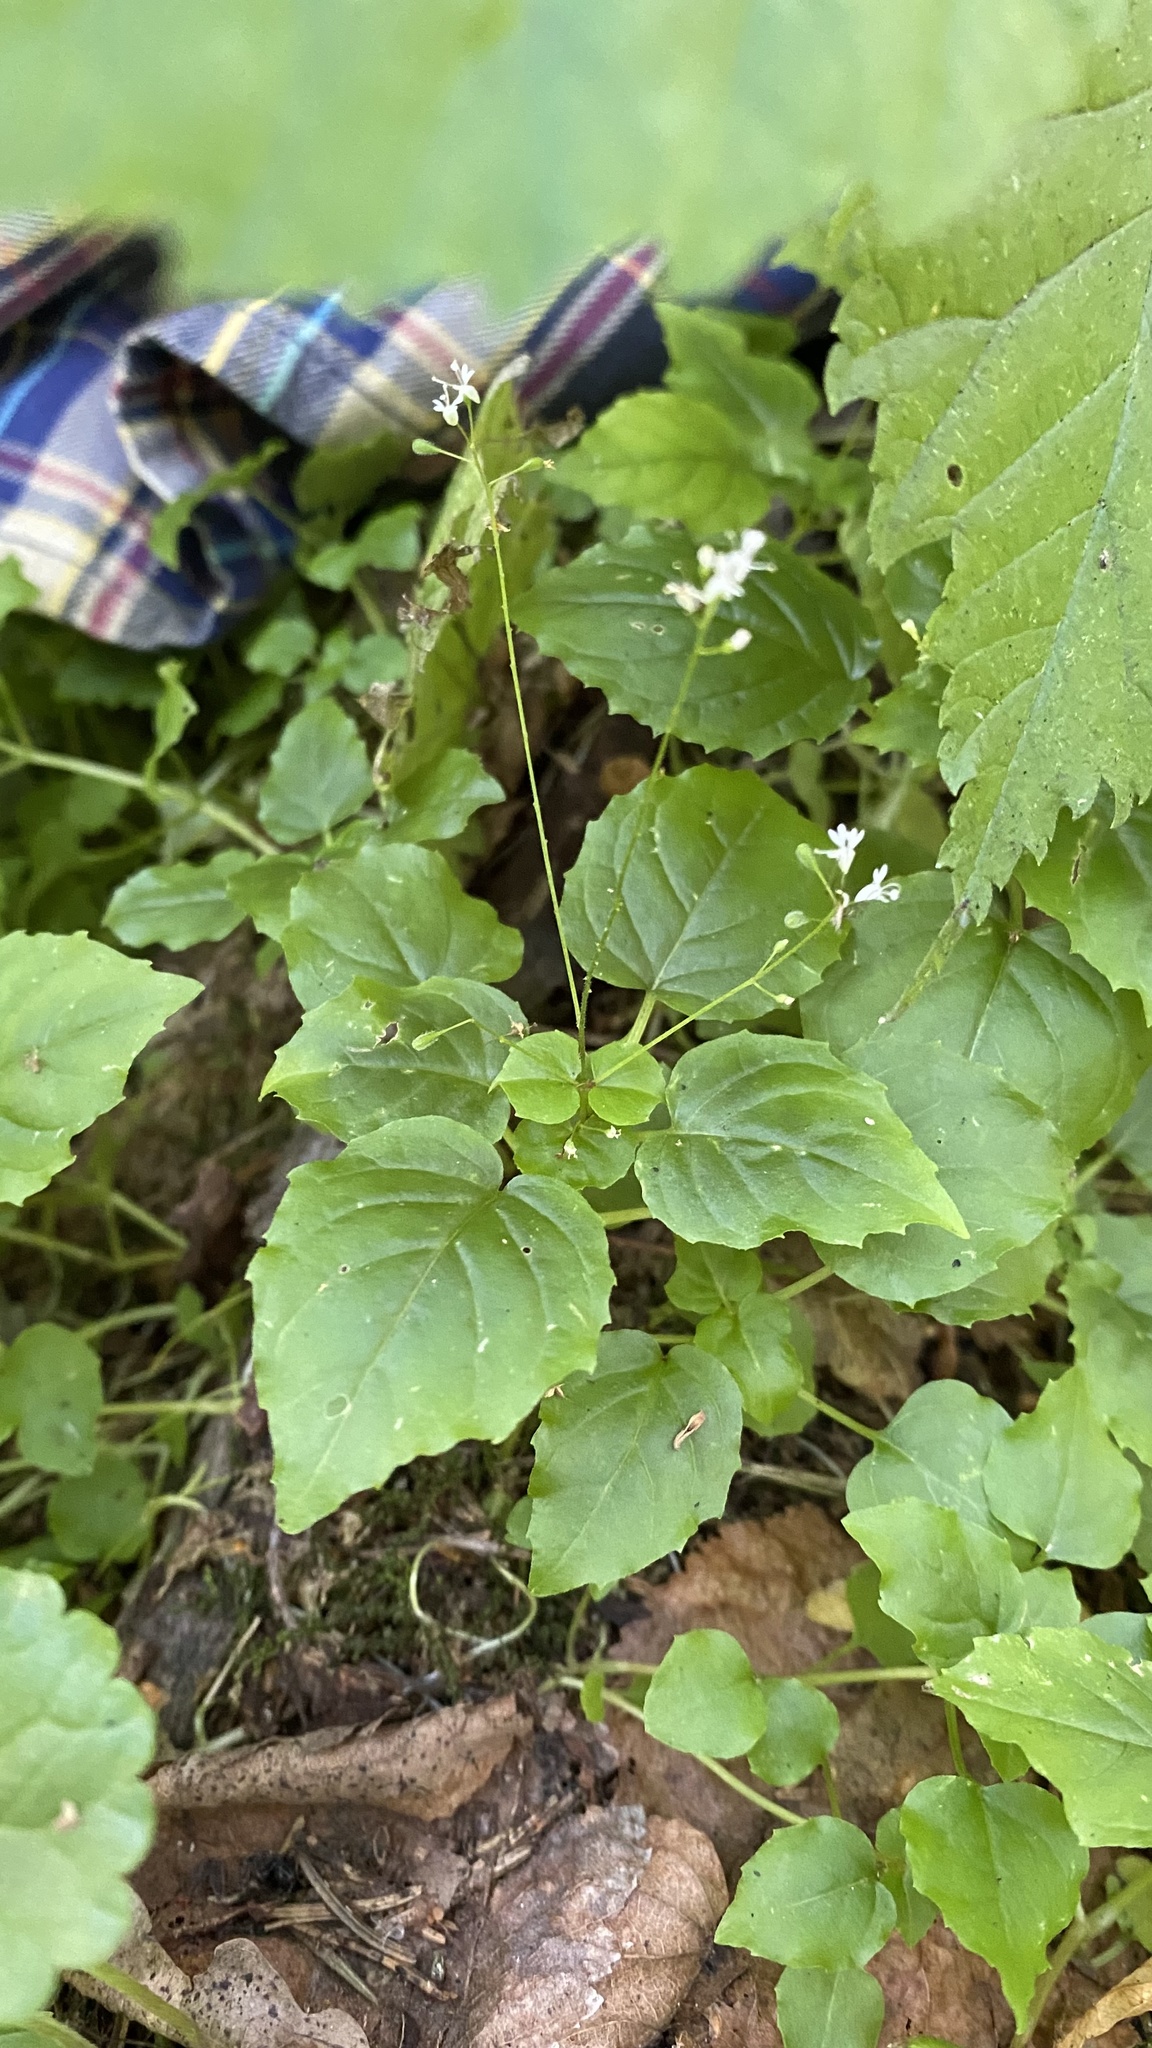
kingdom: Plantae
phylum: Tracheophyta
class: Magnoliopsida
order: Myrtales
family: Onagraceae
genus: Circaea
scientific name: Circaea alpina
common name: Alpine enchanter's-nightshade
